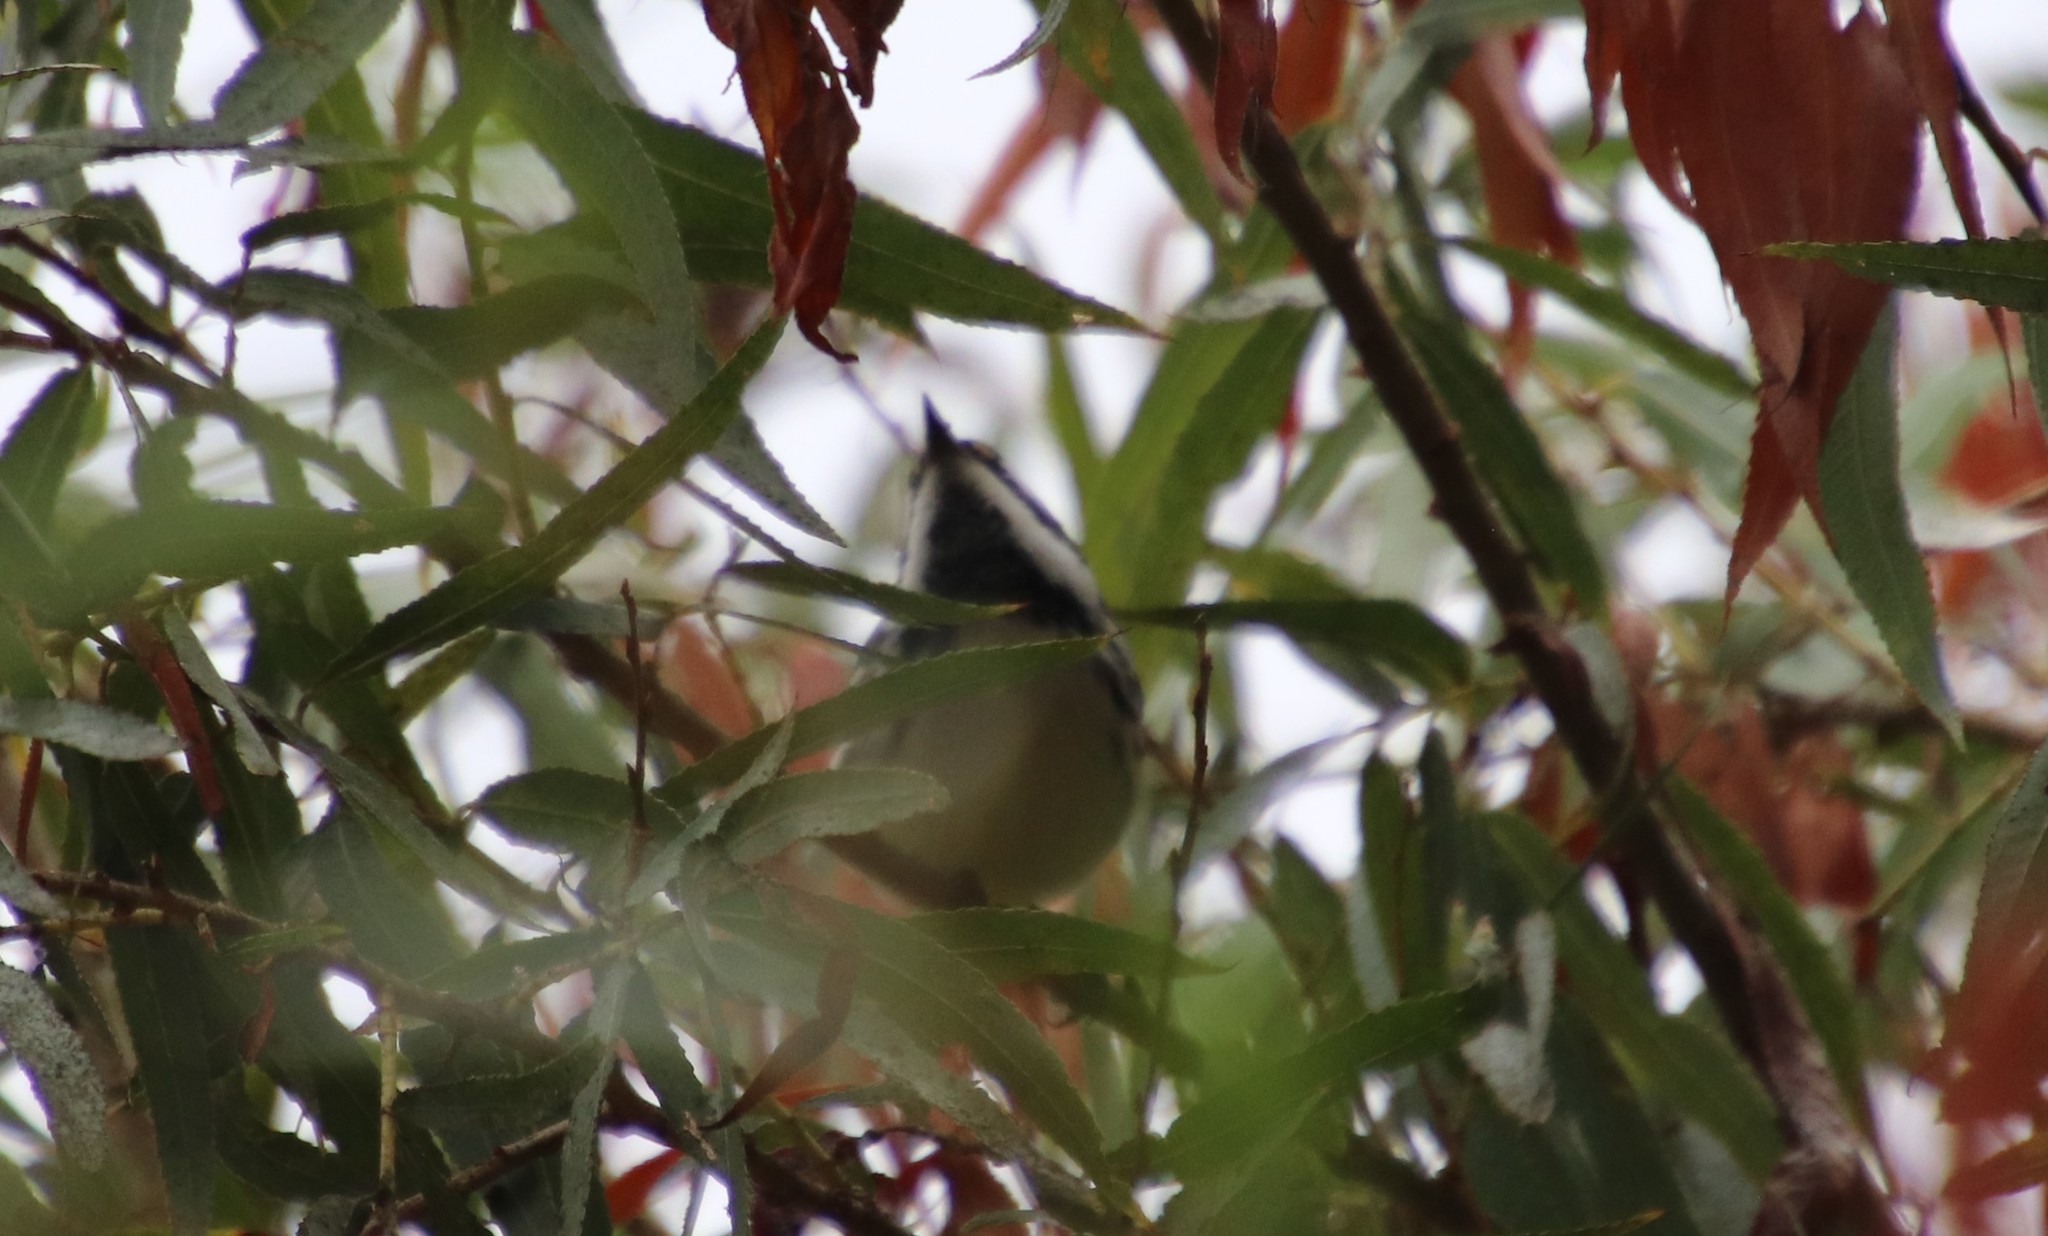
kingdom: Animalia
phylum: Chordata
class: Aves
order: Passeriformes
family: Parulidae
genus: Setophaga
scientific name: Setophaga nigrescens
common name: Black-throated gray warbler
